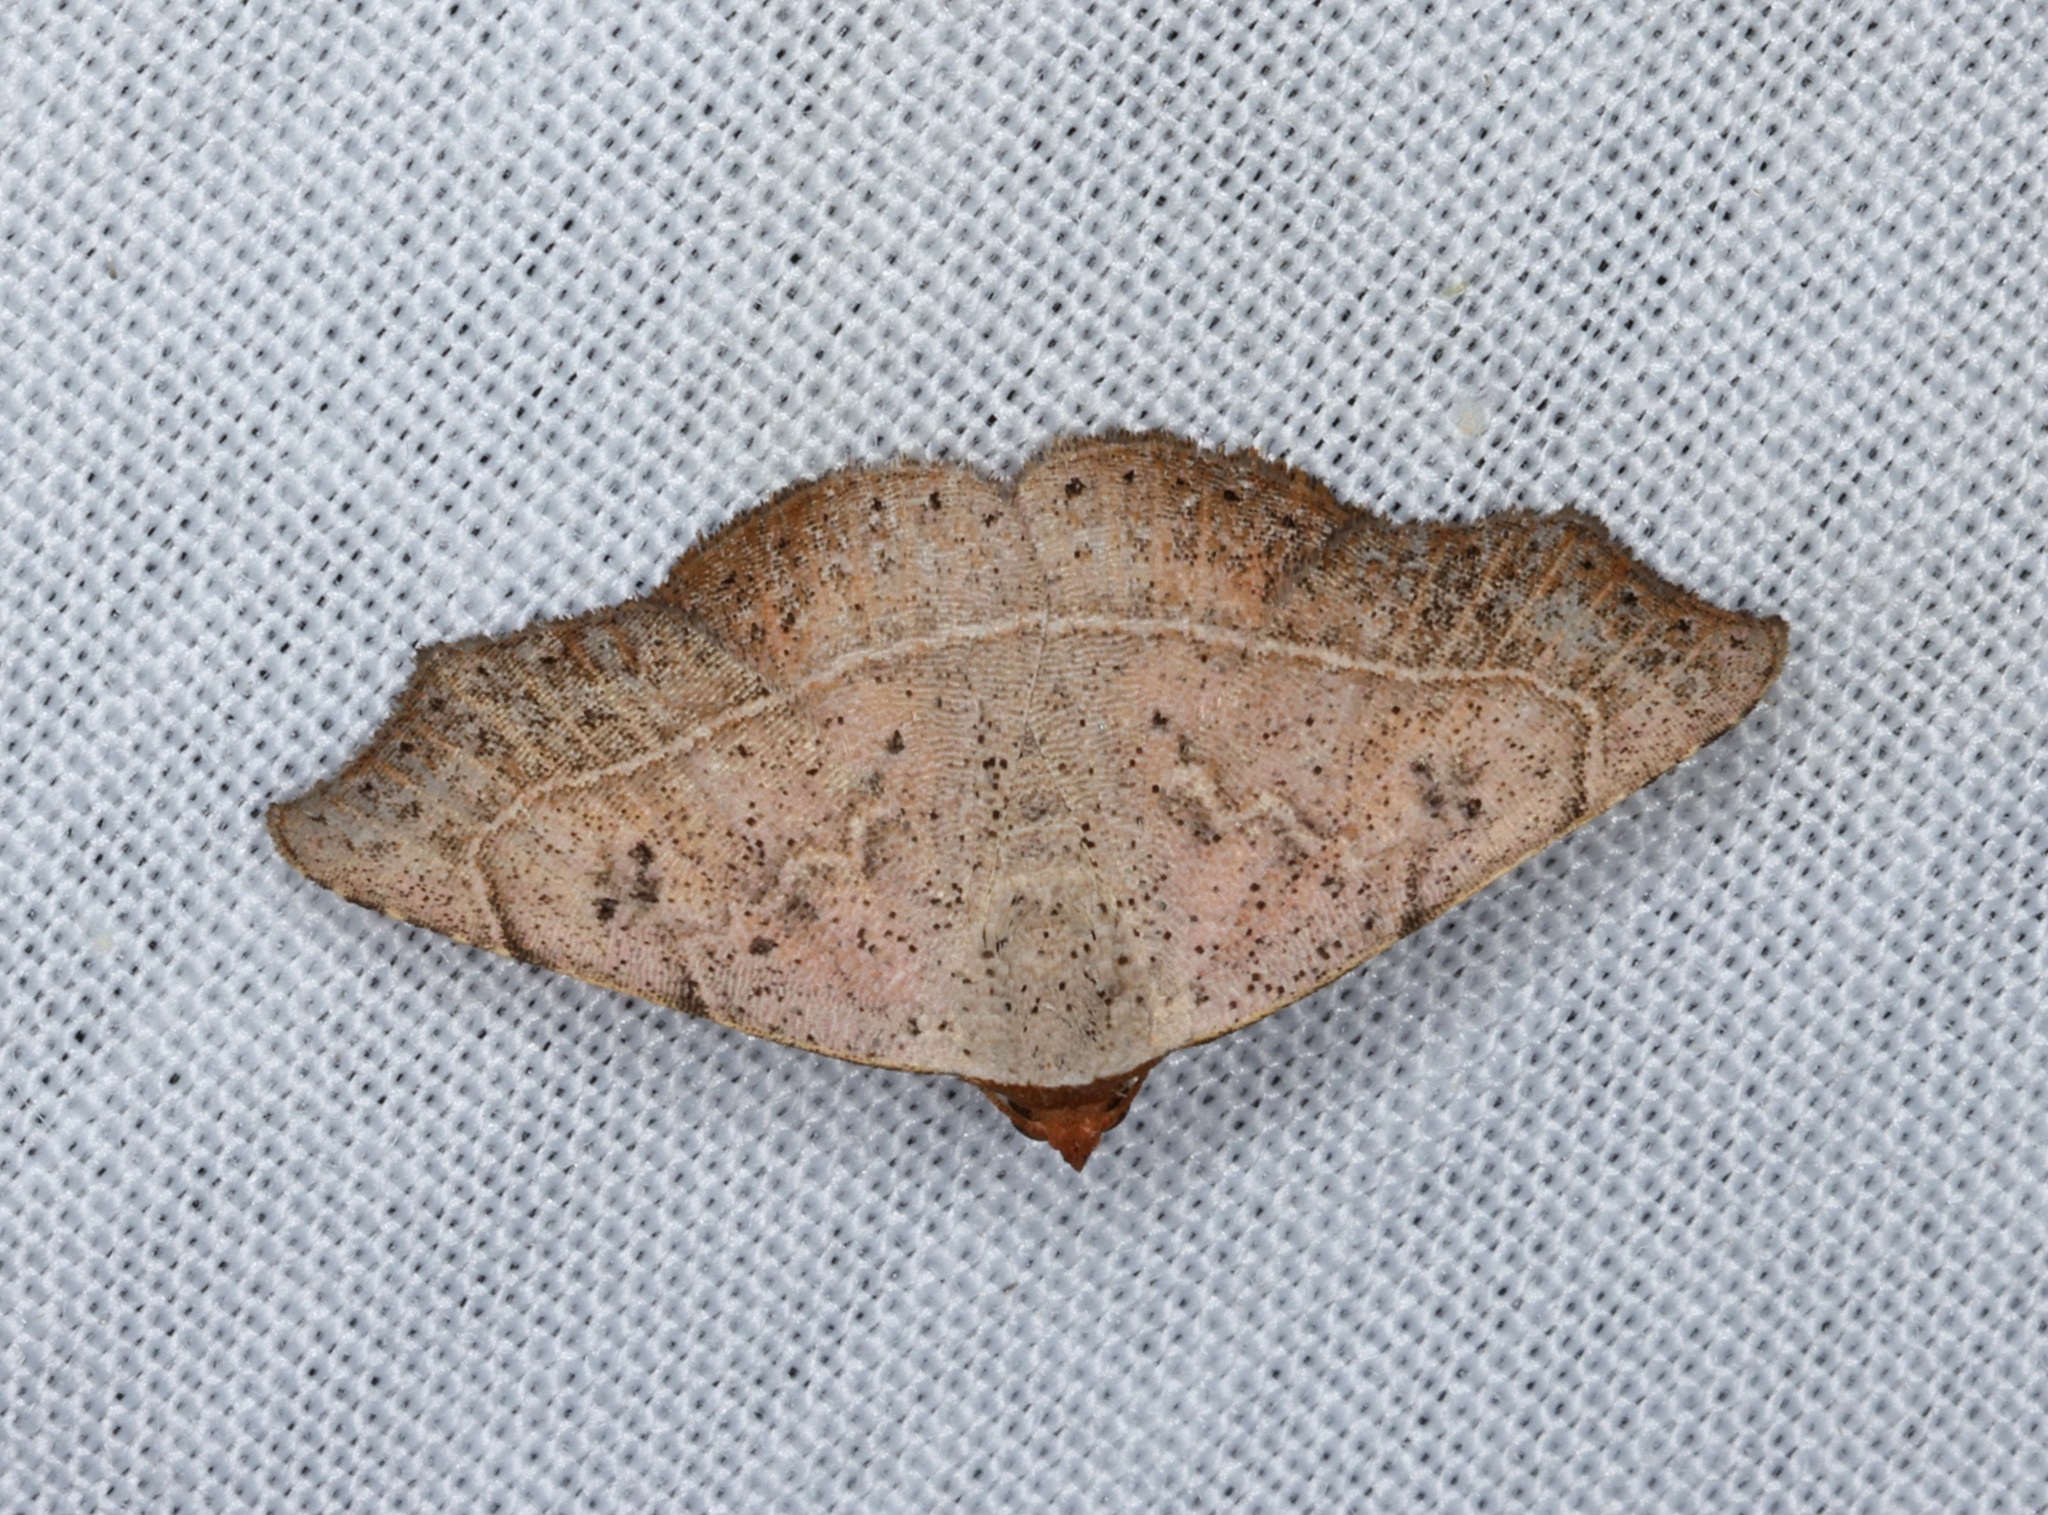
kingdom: Animalia
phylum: Arthropoda
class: Insecta
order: Lepidoptera
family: Erebidae
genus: Laspeyria
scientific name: Laspeyria ruficeps
